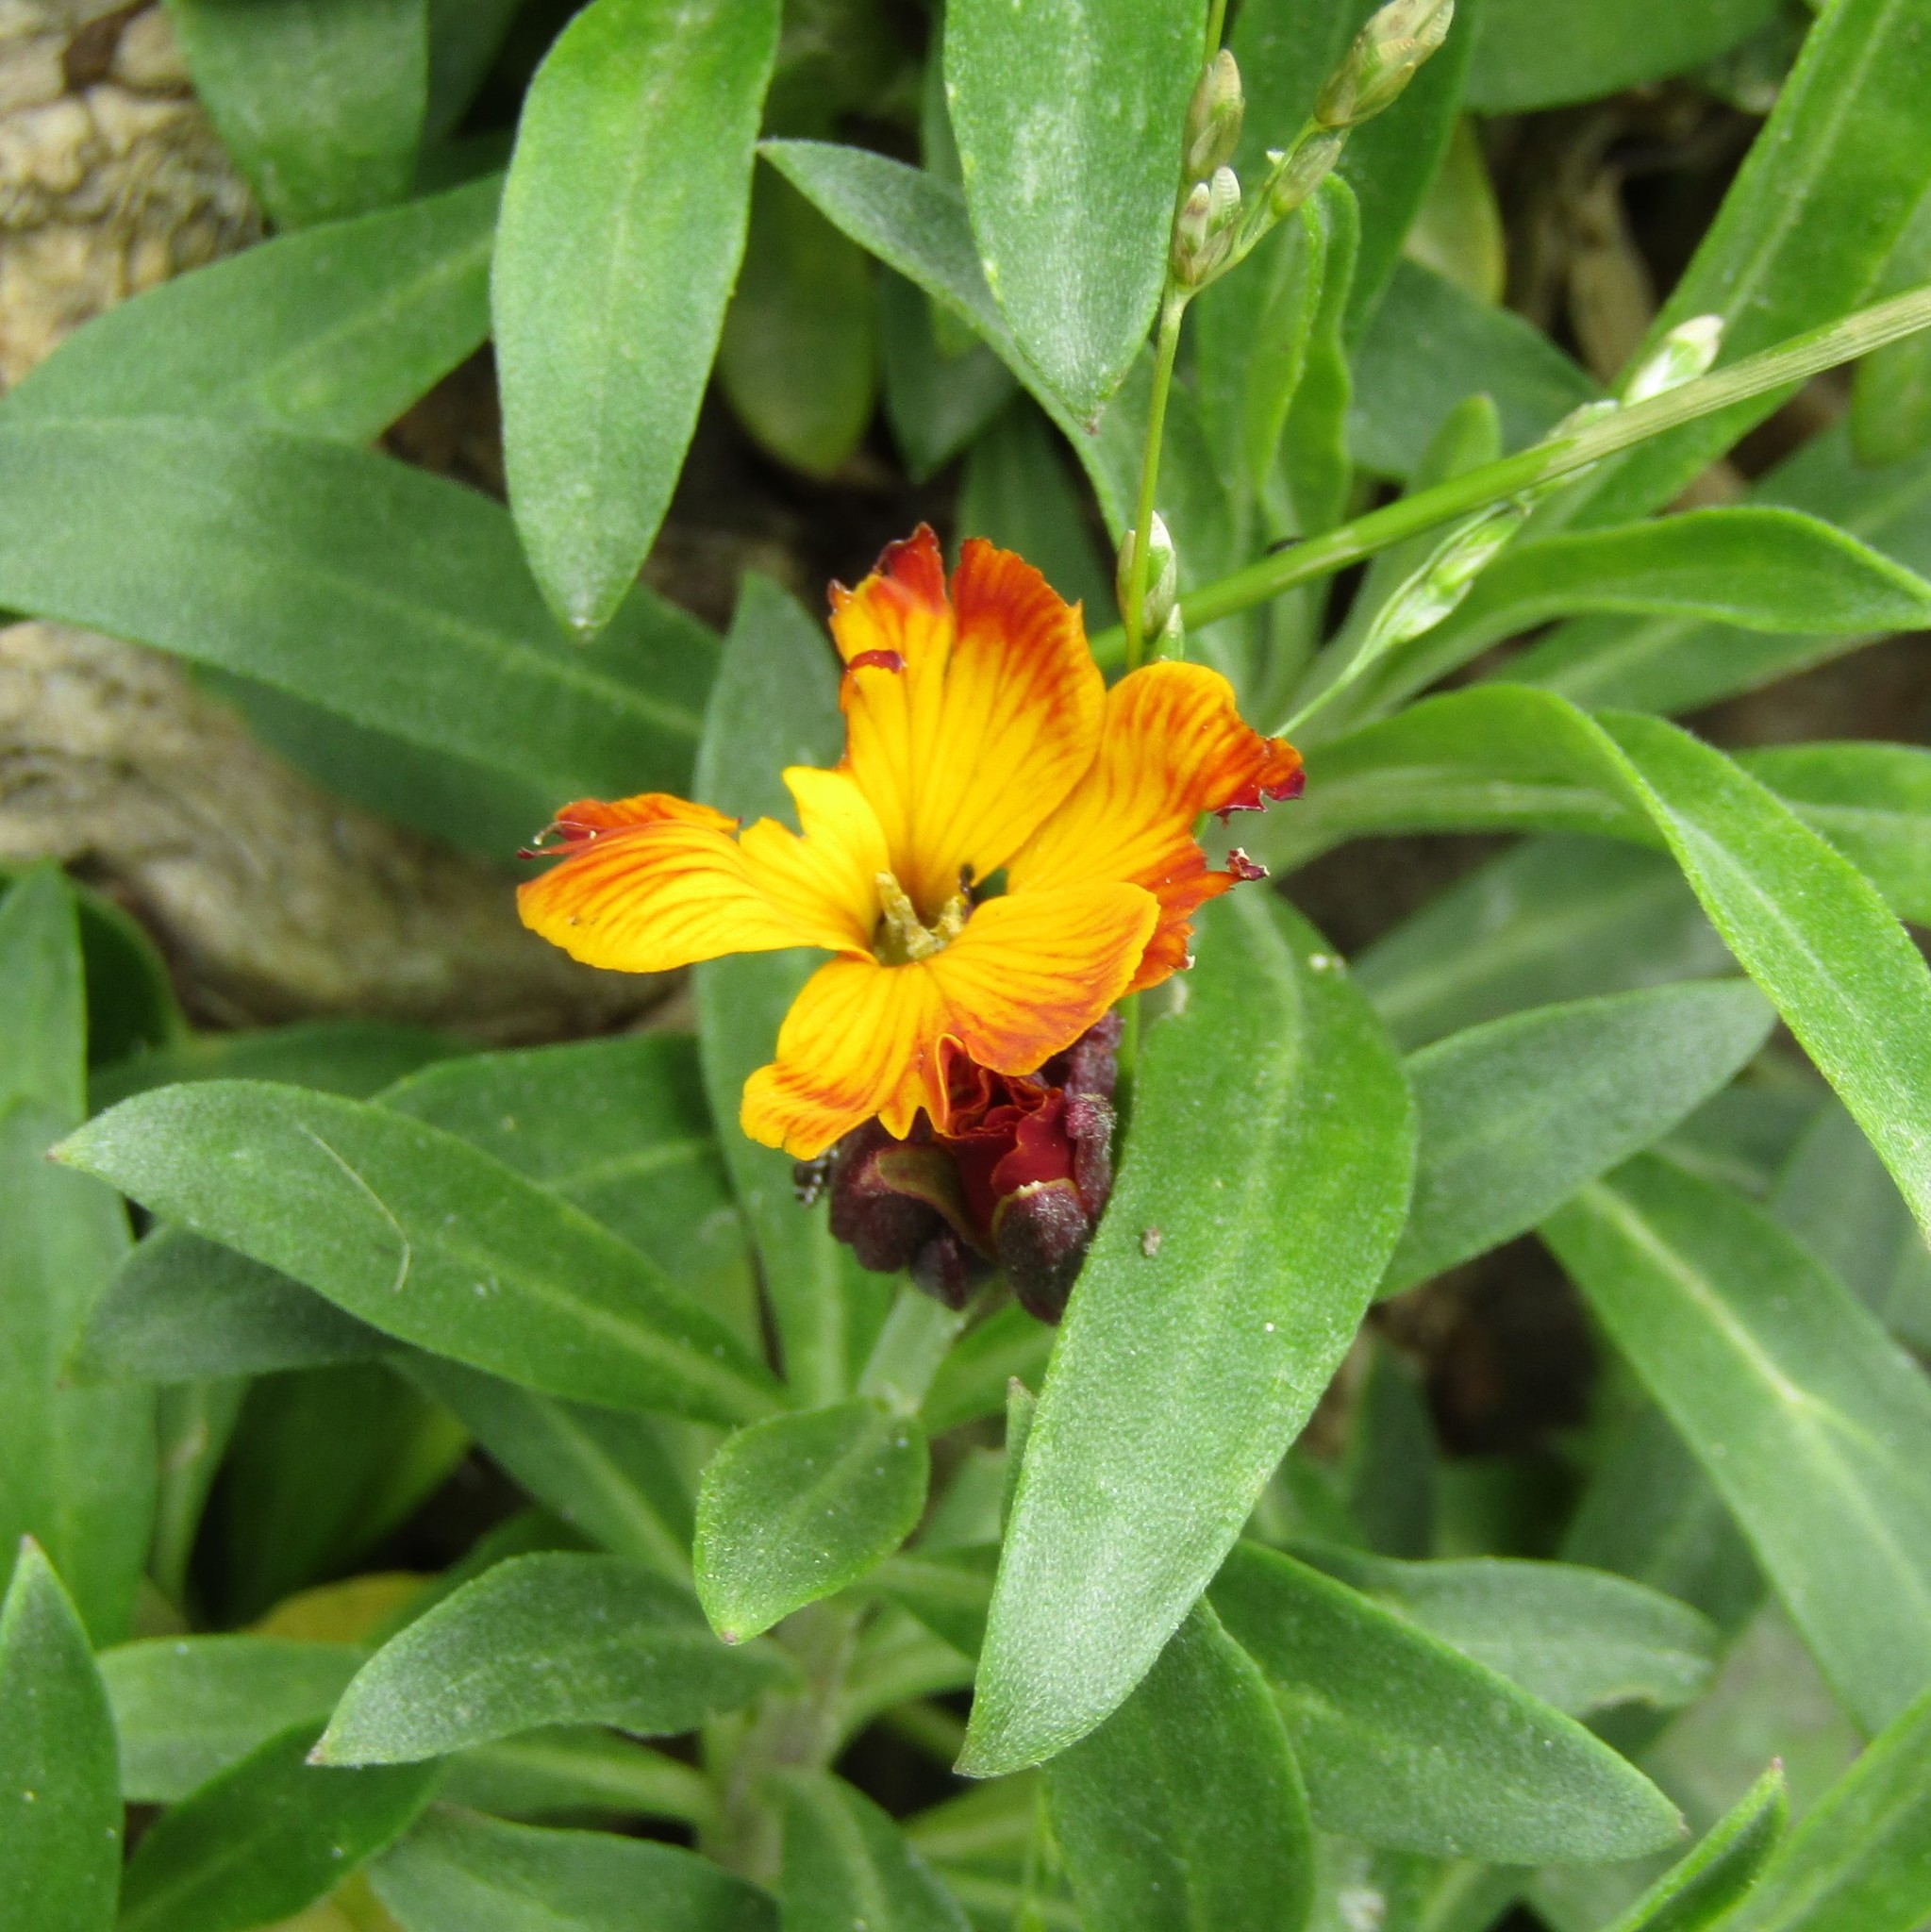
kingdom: Plantae
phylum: Tracheophyta
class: Magnoliopsida
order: Brassicales
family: Brassicaceae
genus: Erysimum
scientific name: Erysimum cheiri
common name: Wallflower
